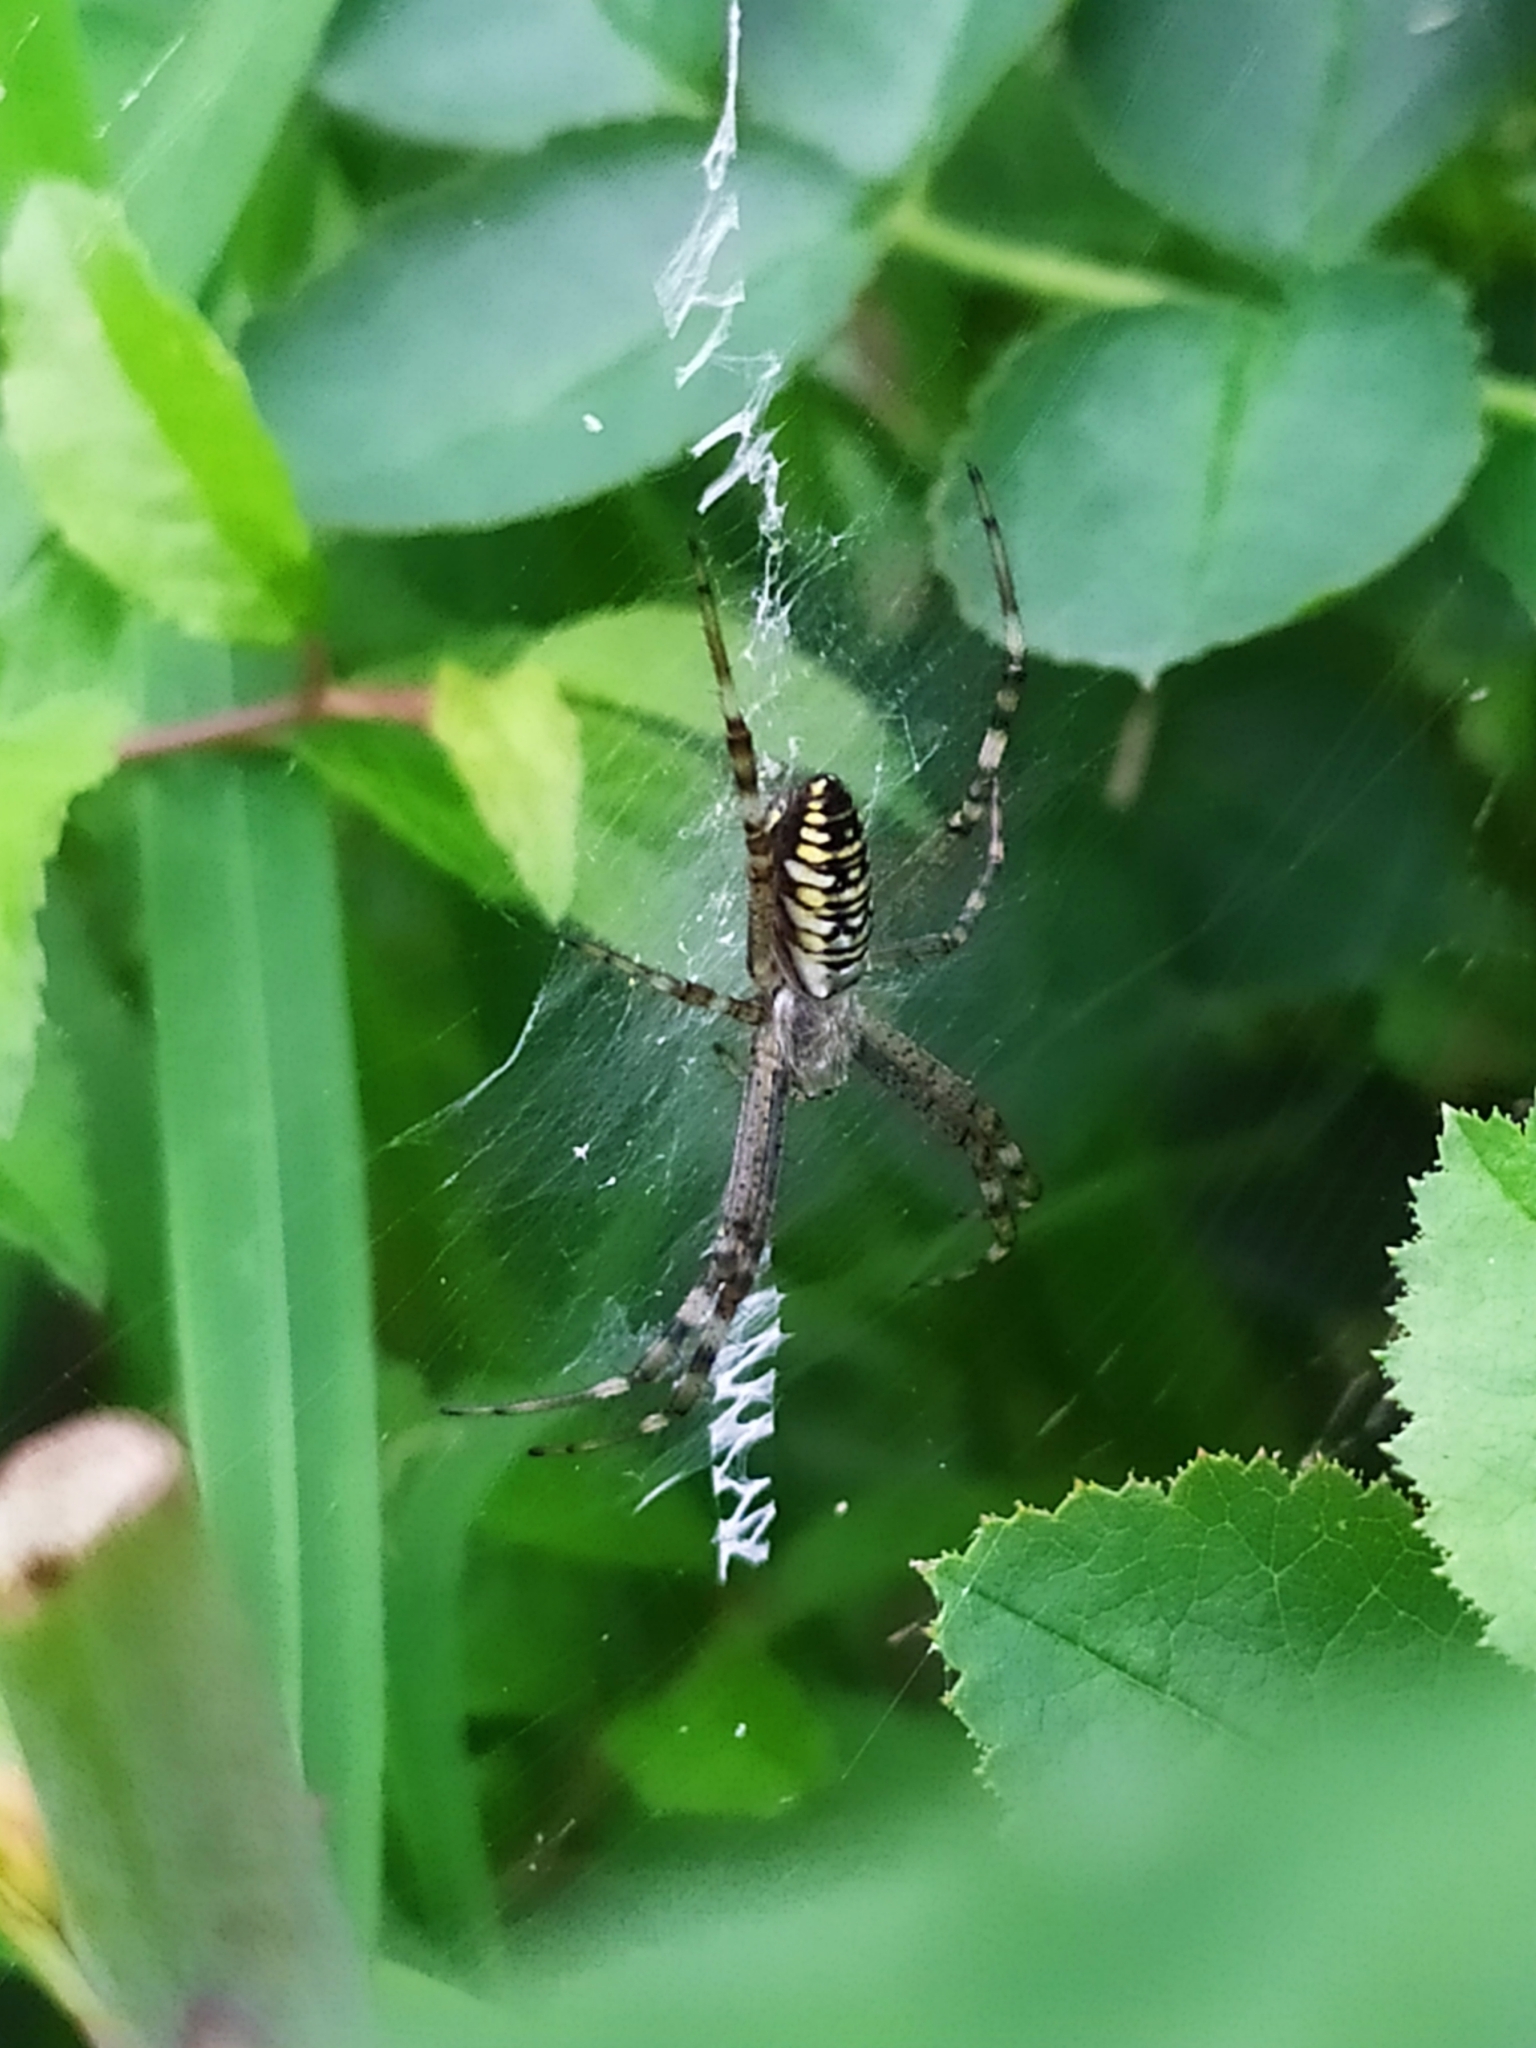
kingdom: Animalia
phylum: Arthropoda
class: Arachnida
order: Araneae
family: Araneidae
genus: Argiope
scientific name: Argiope bruennichi
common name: Wasp spider
